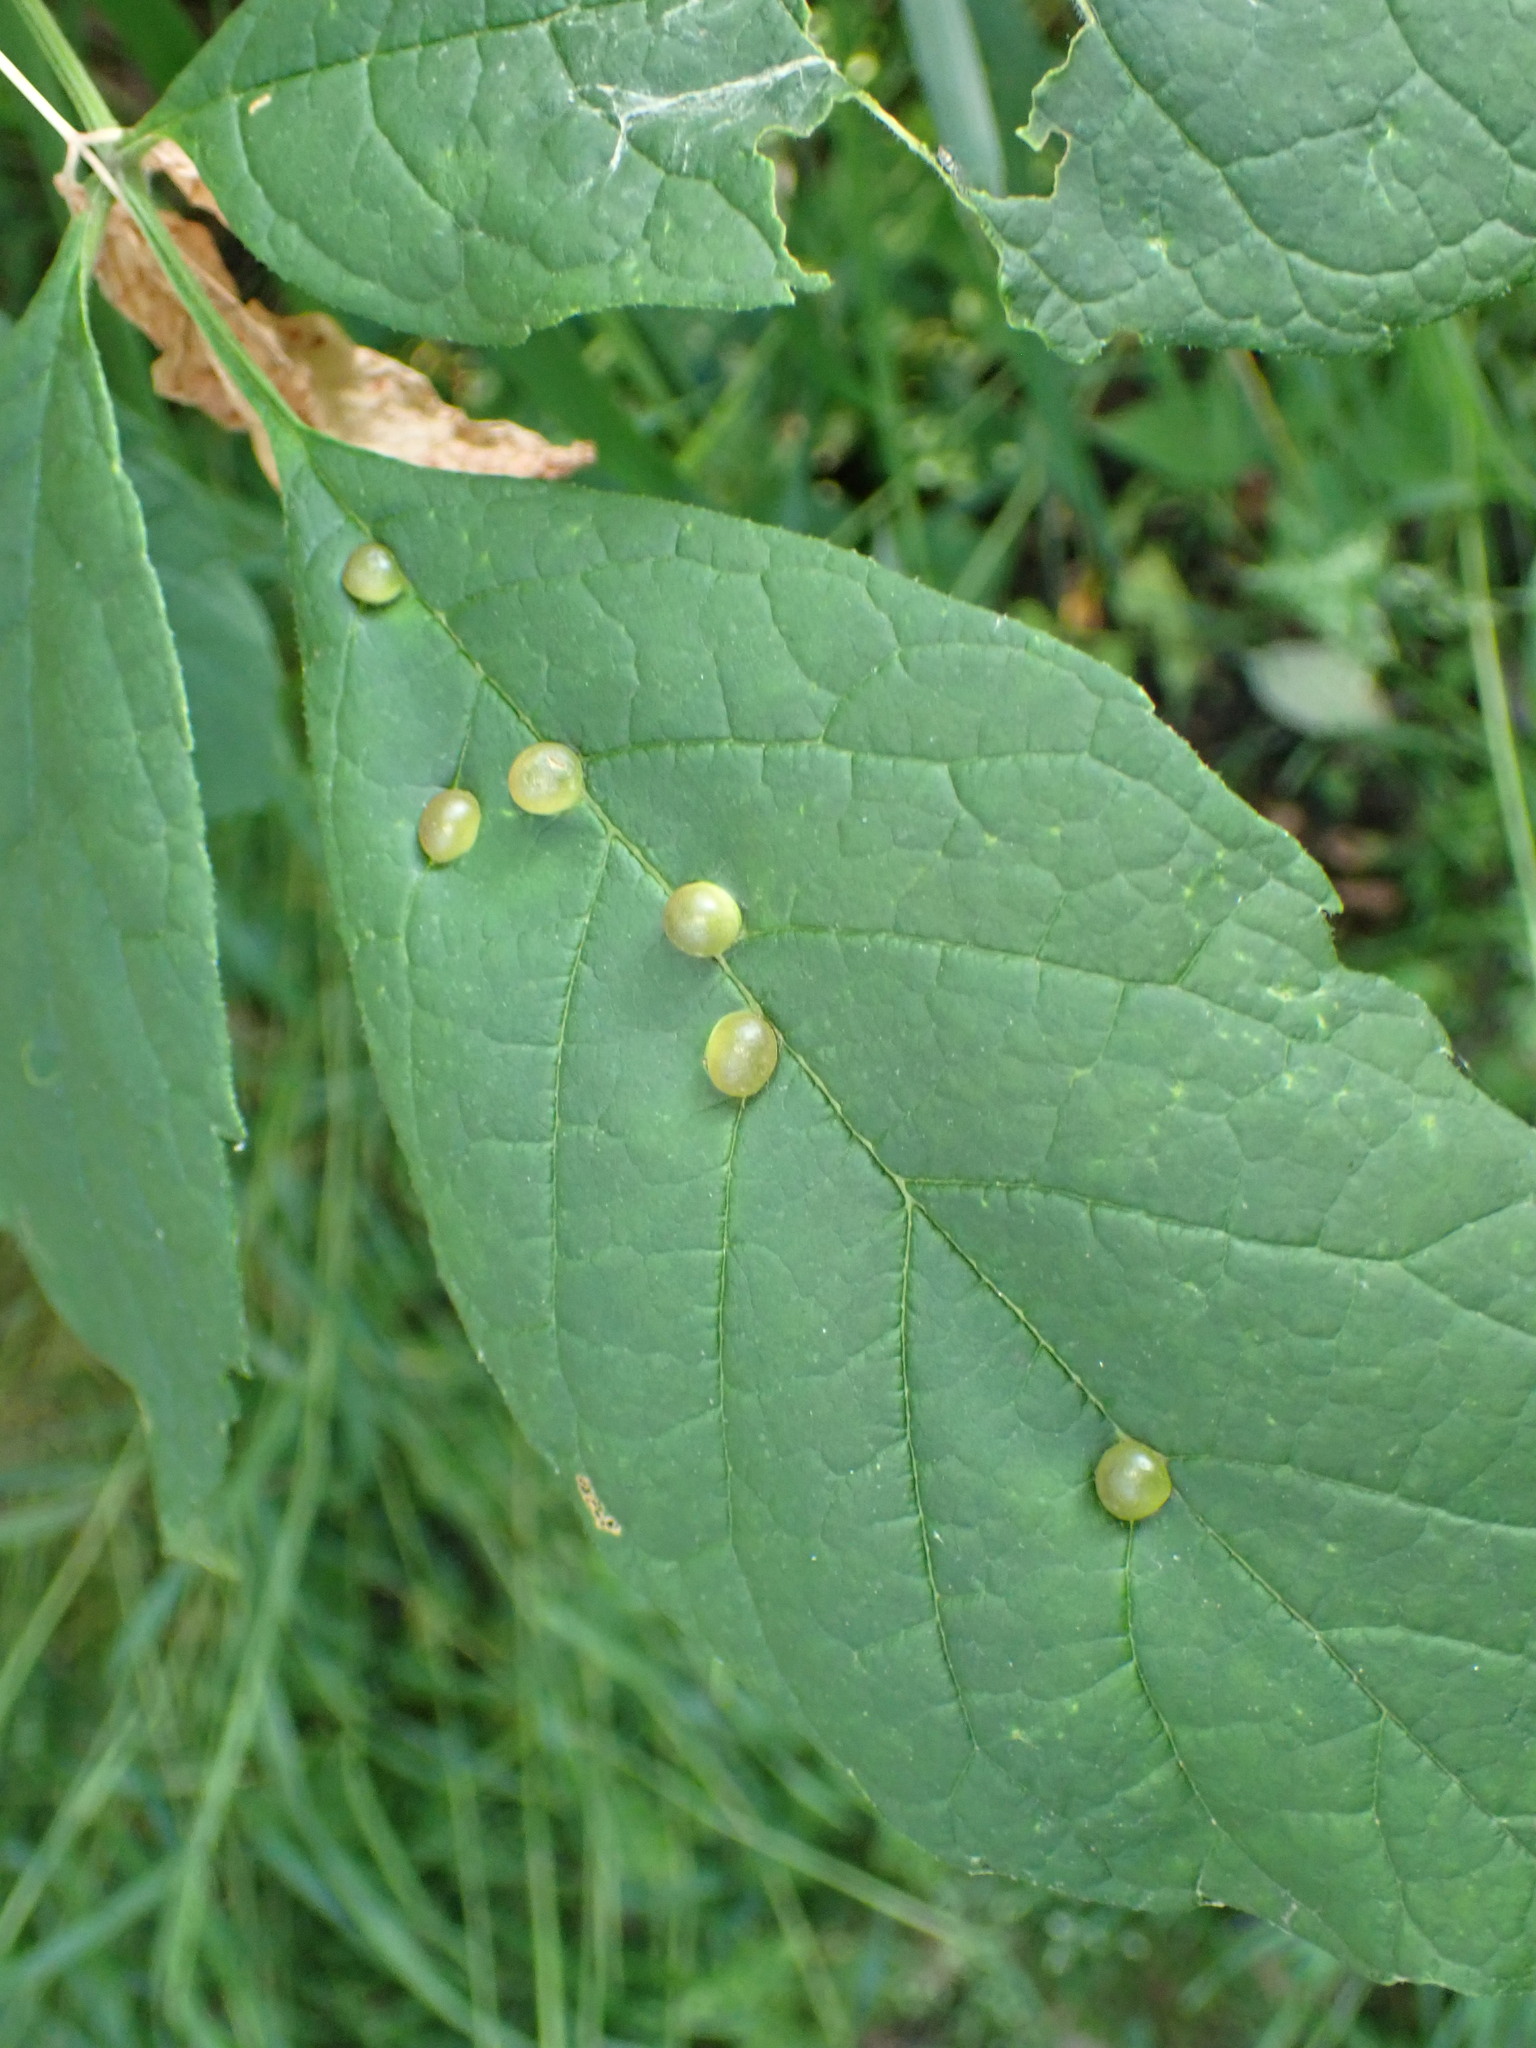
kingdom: Animalia
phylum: Arthropoda
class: Insecta
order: Diptera
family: Cecidomyiidae
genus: Dasineura
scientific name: Dasineura pellex
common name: Ash bullet gall midge
